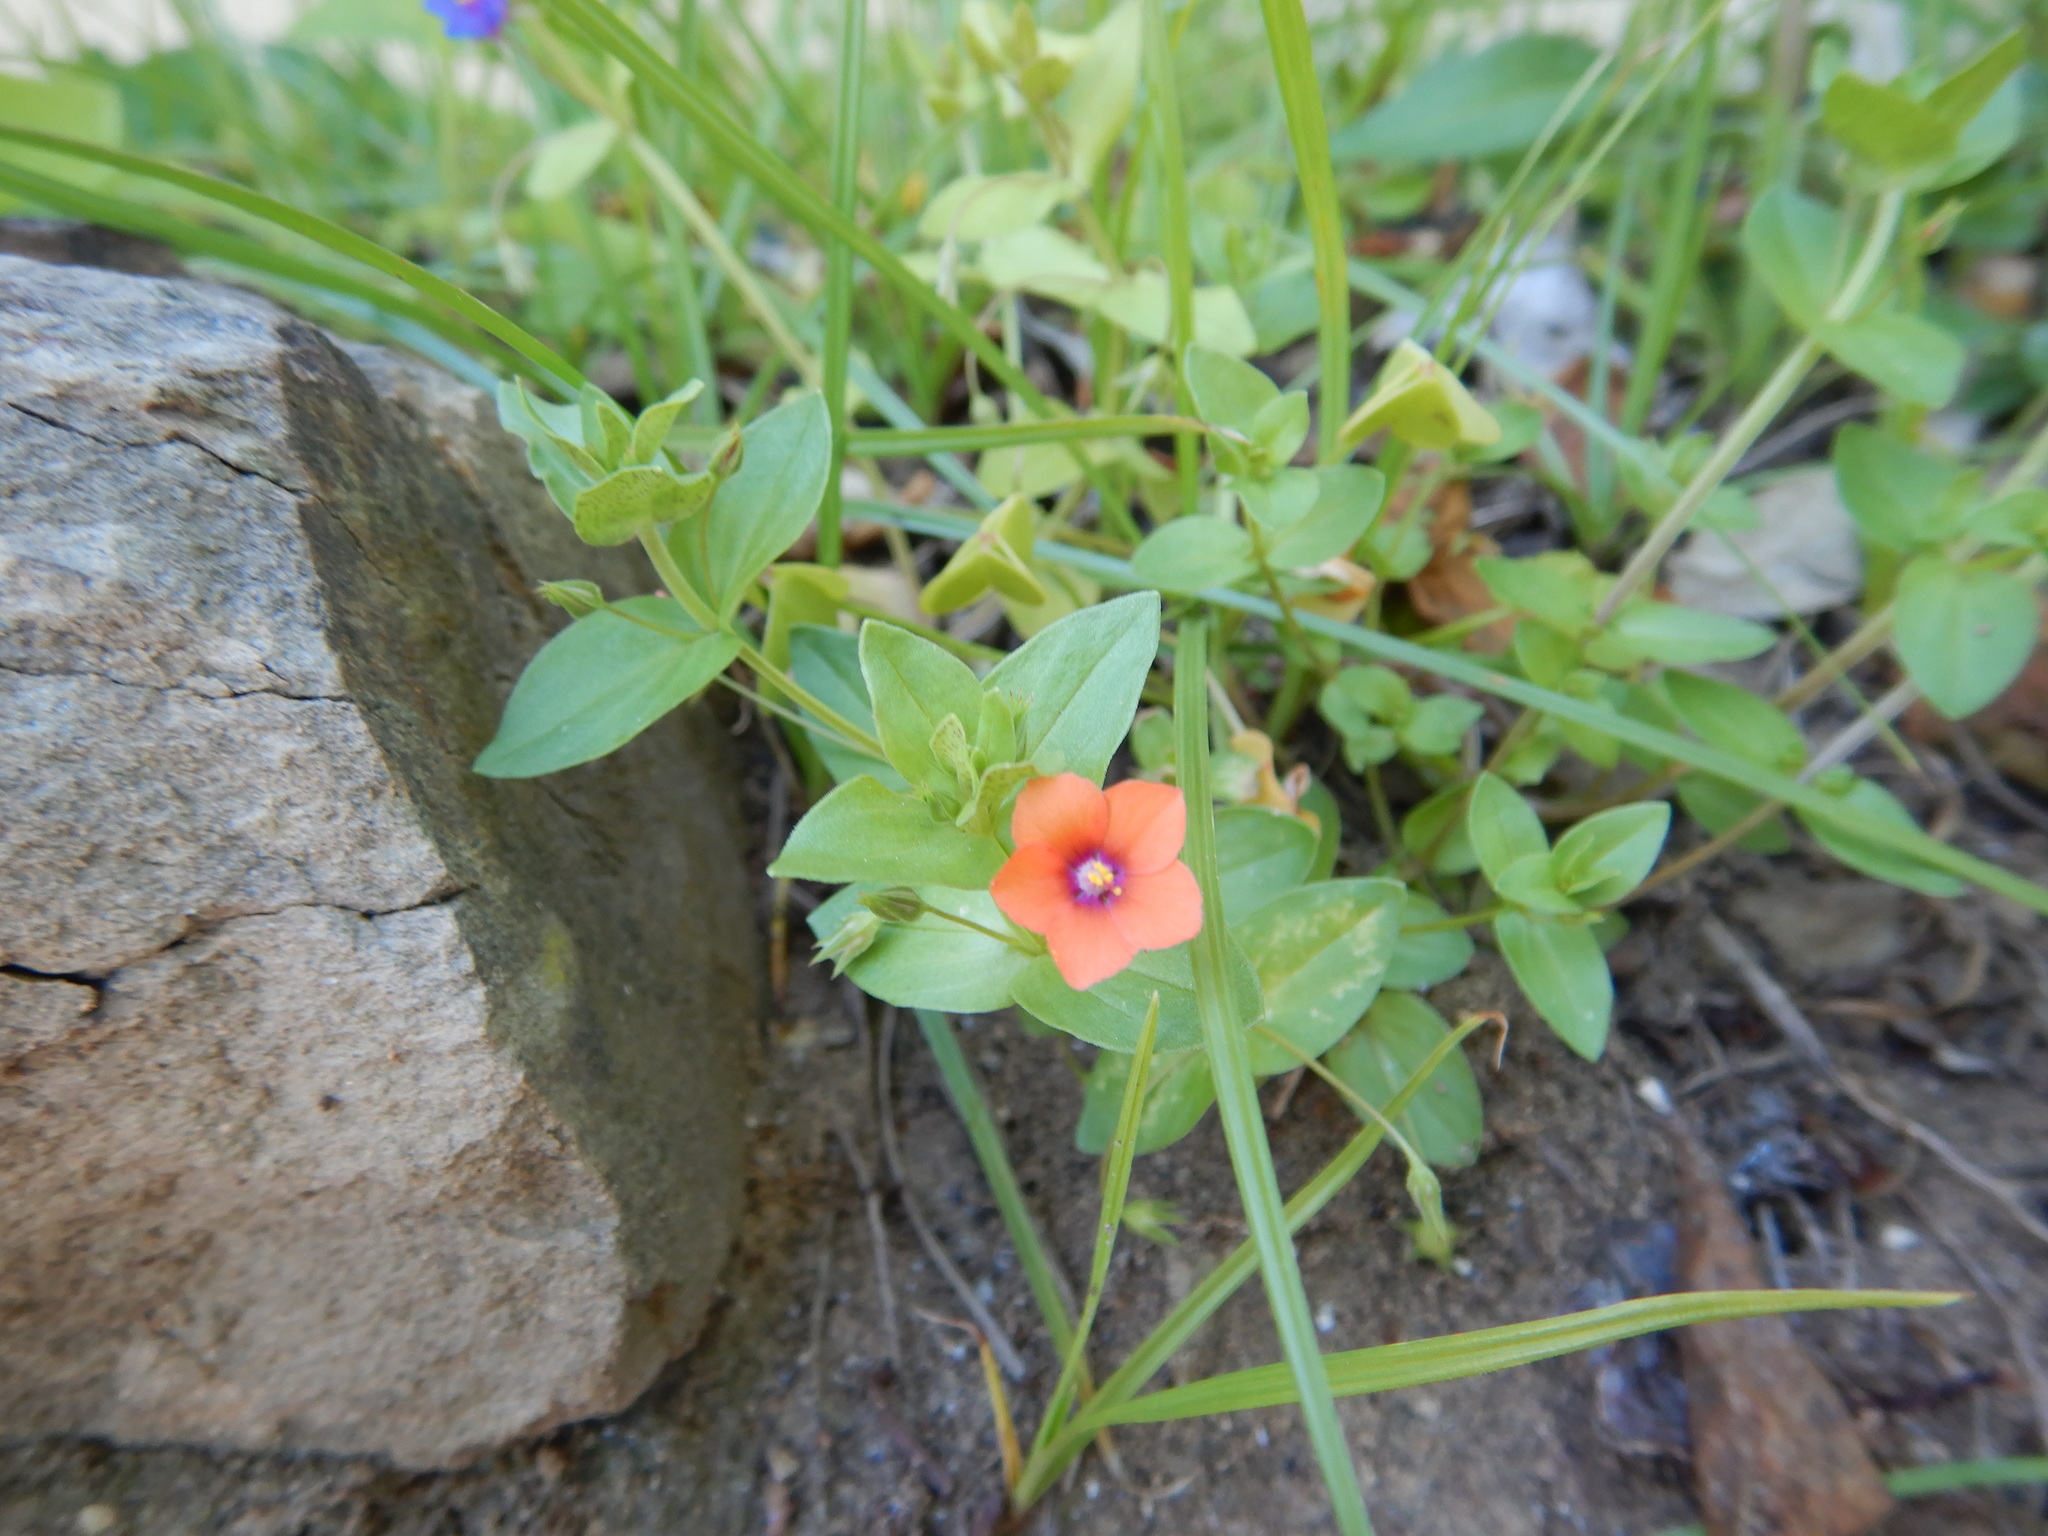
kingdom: Plantae
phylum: Tracheophyta
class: Magnoliopsida
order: Ericales
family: Primulaceae
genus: Lysimachia
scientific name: Lysimachia arvensis
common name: Scarlet pimpernel
